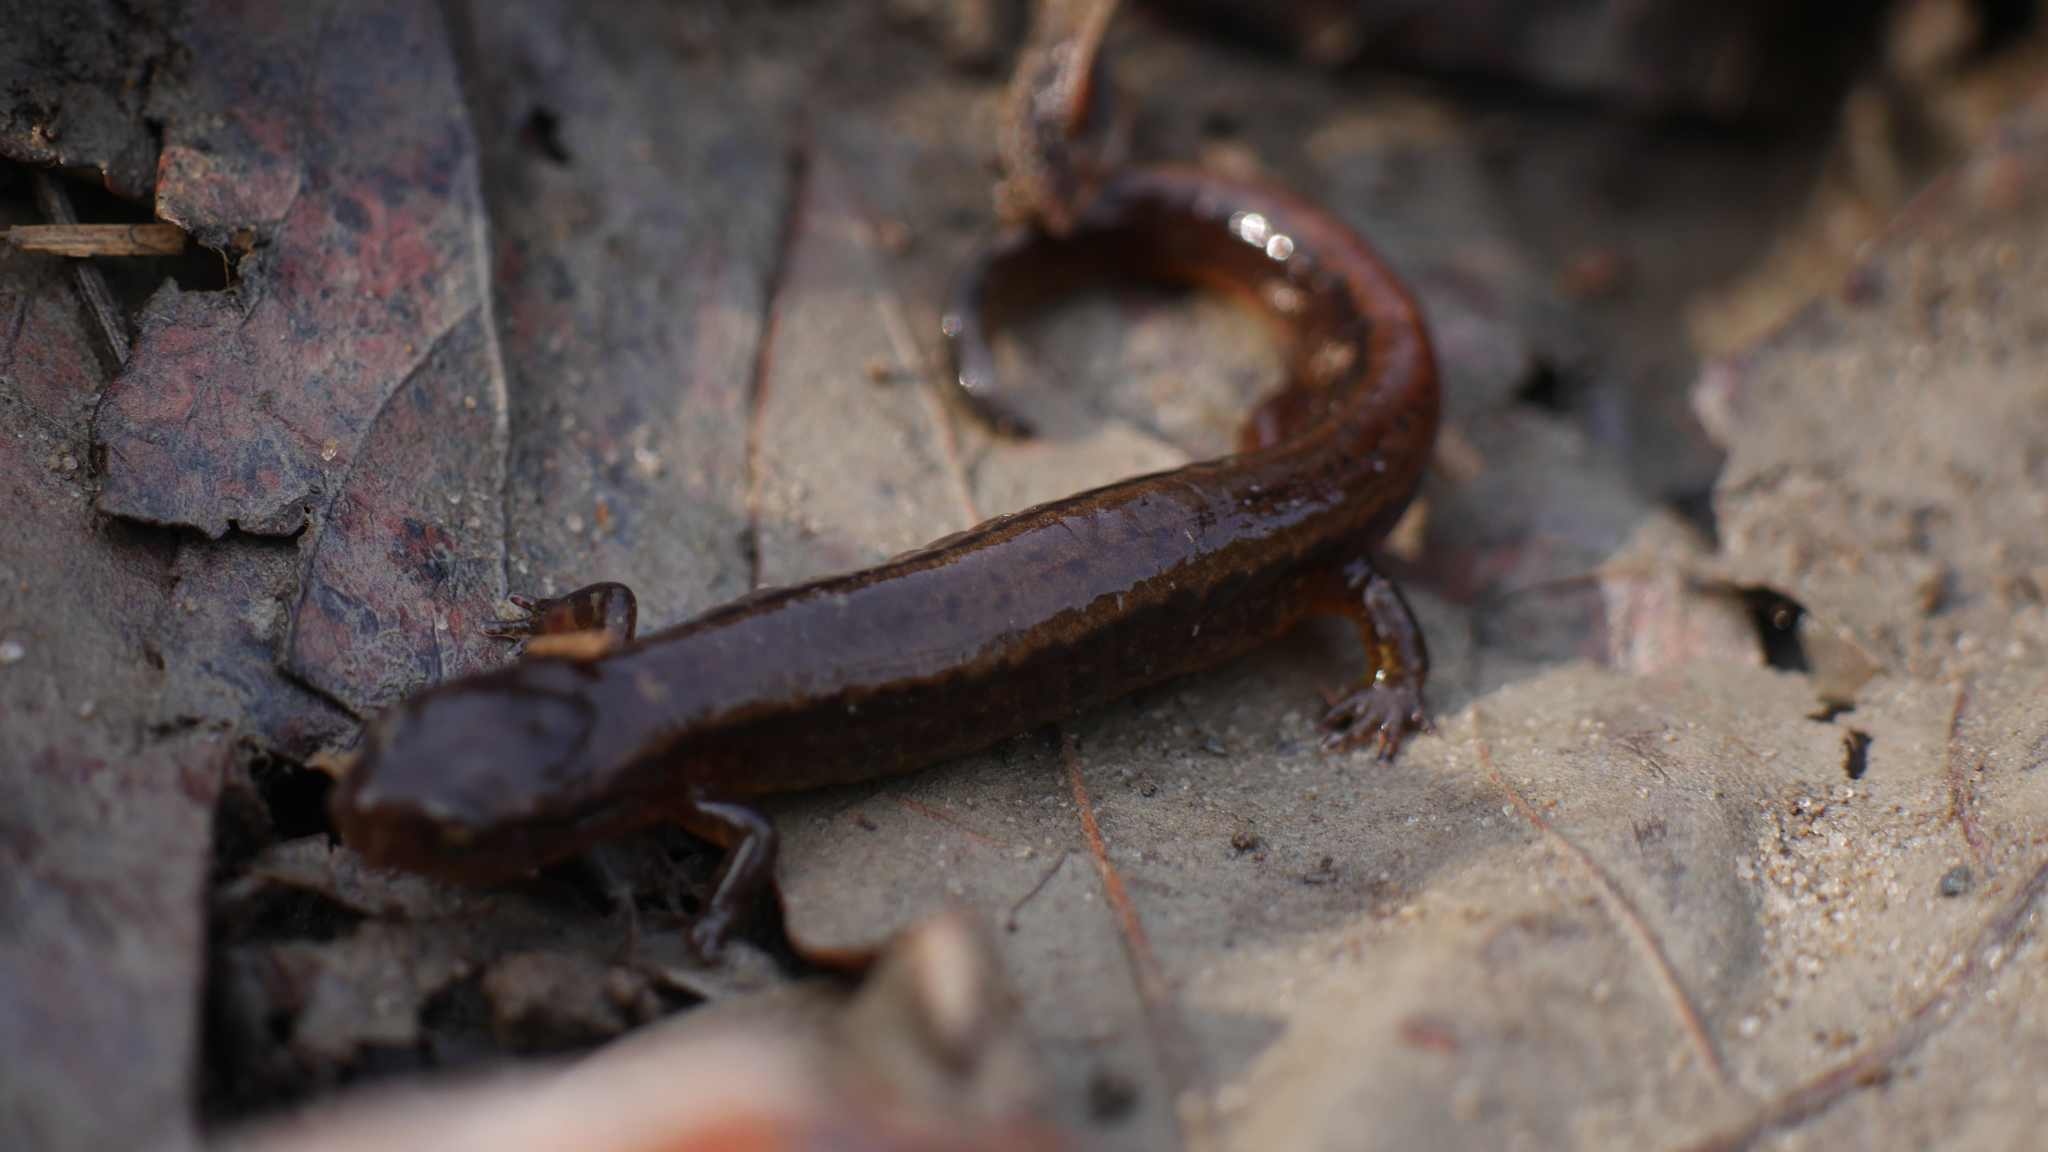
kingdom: Animalia
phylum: Chordata
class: Amphibia
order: Caudata
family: Plethodontidae
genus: Eurycea
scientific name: Eurycea cirrigera
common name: Southern two-lined salamander
